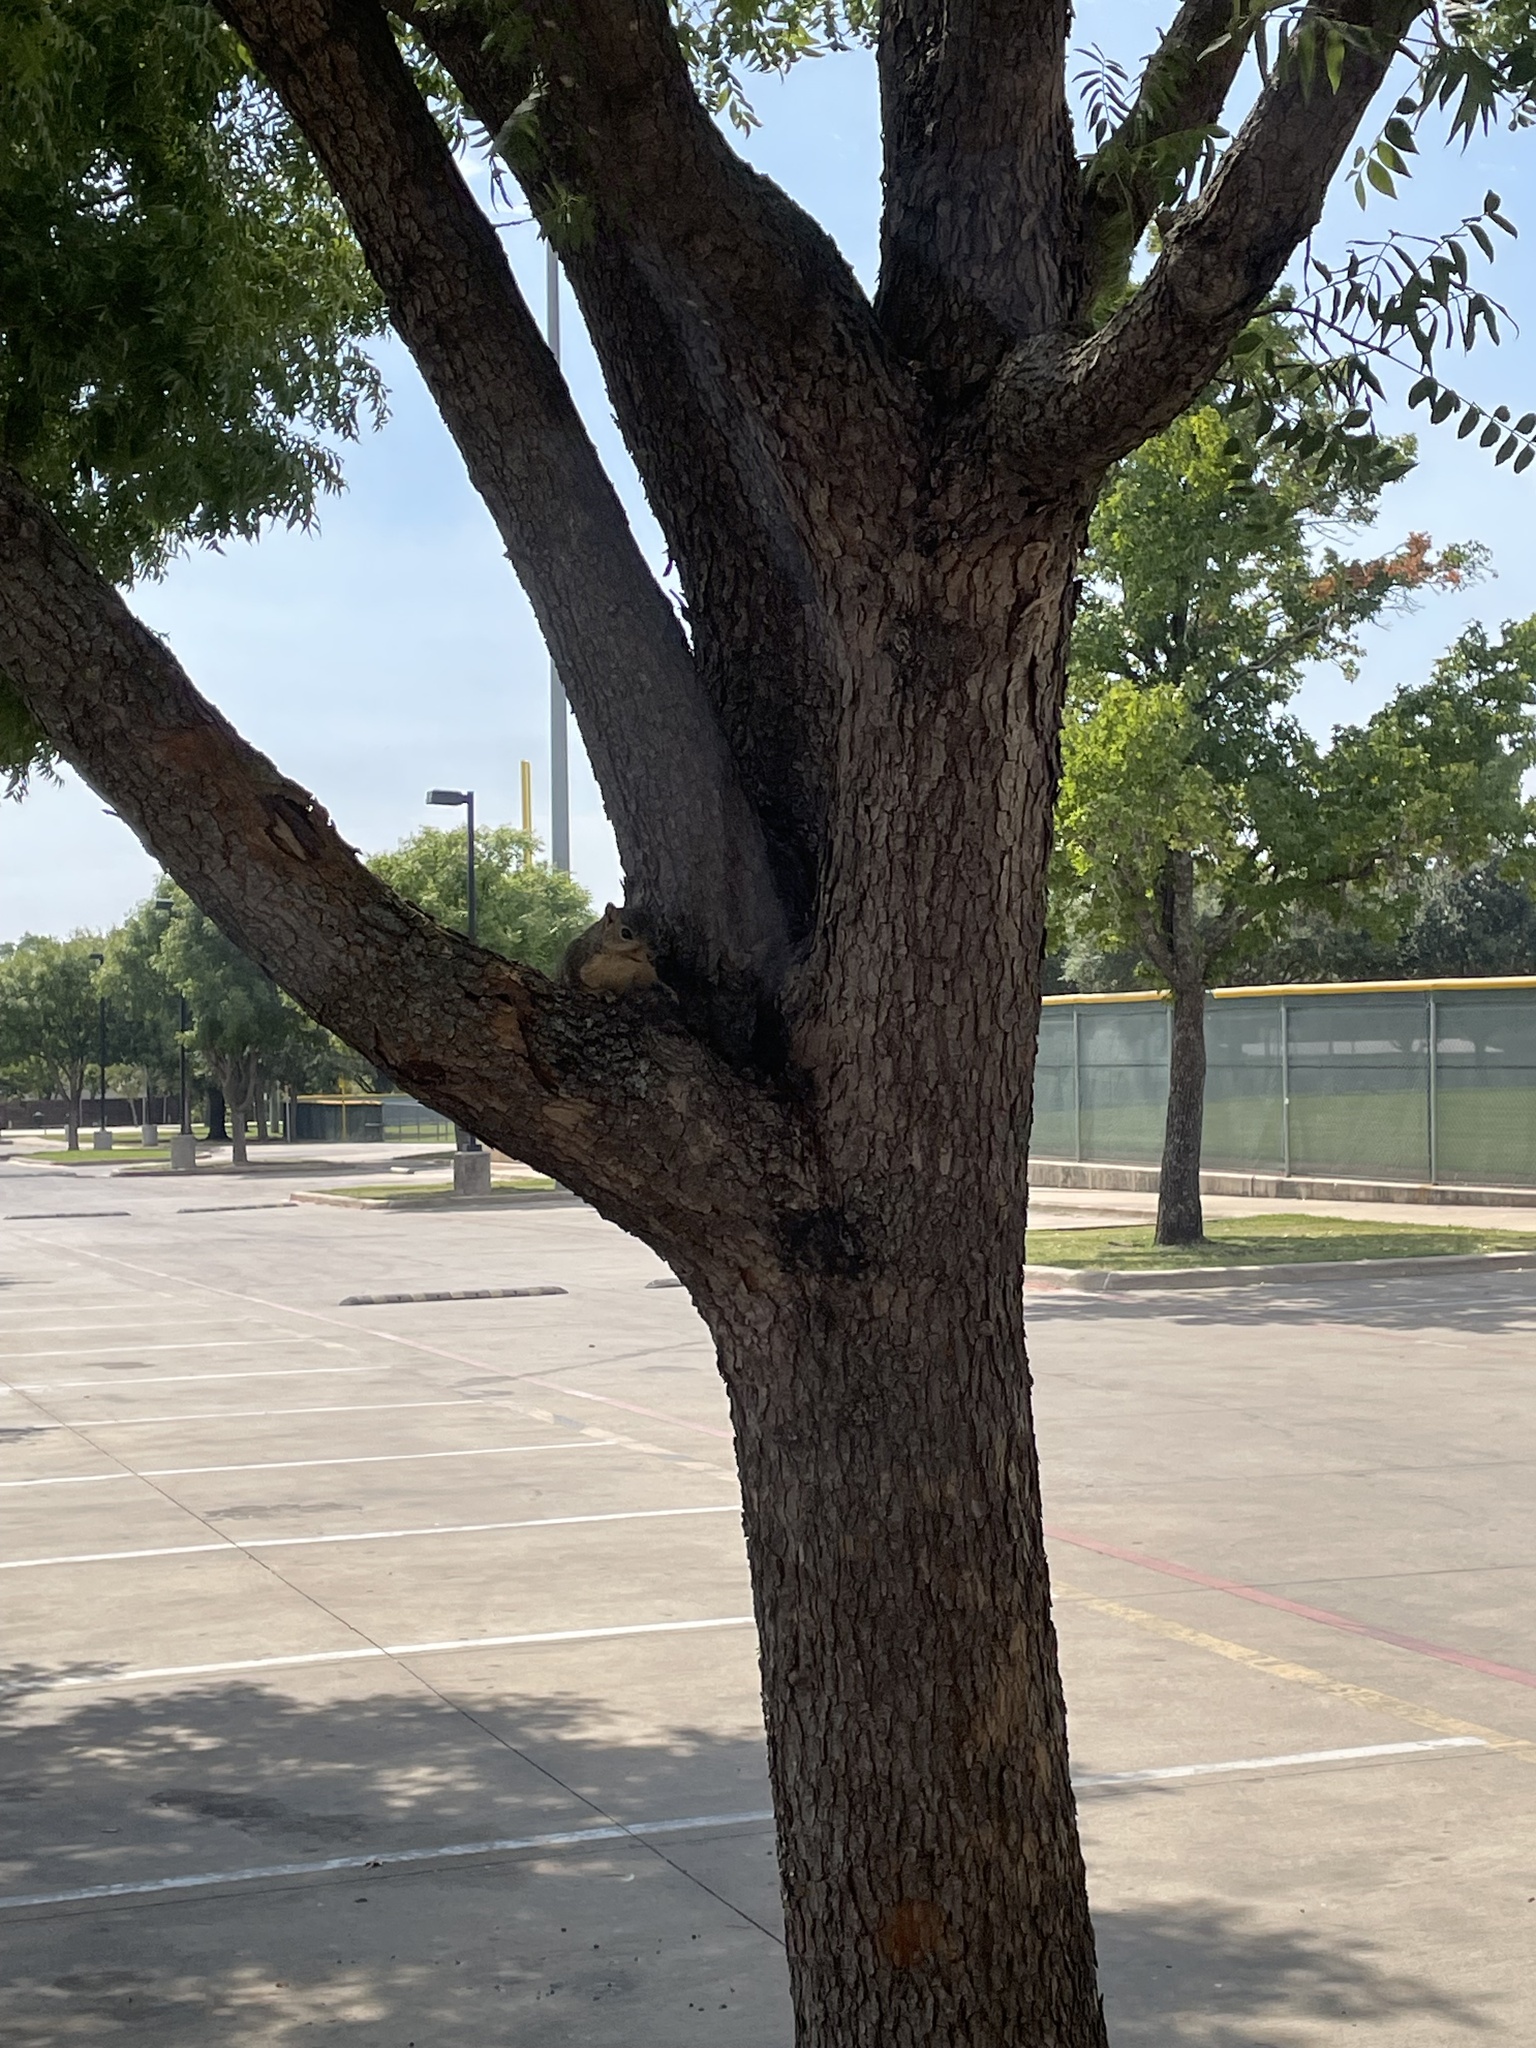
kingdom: Animalia
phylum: Chordata
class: Mammalia
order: Rodentia
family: Sciuridae
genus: Sciurus
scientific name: Sciurus niger
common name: Fox squirrel
